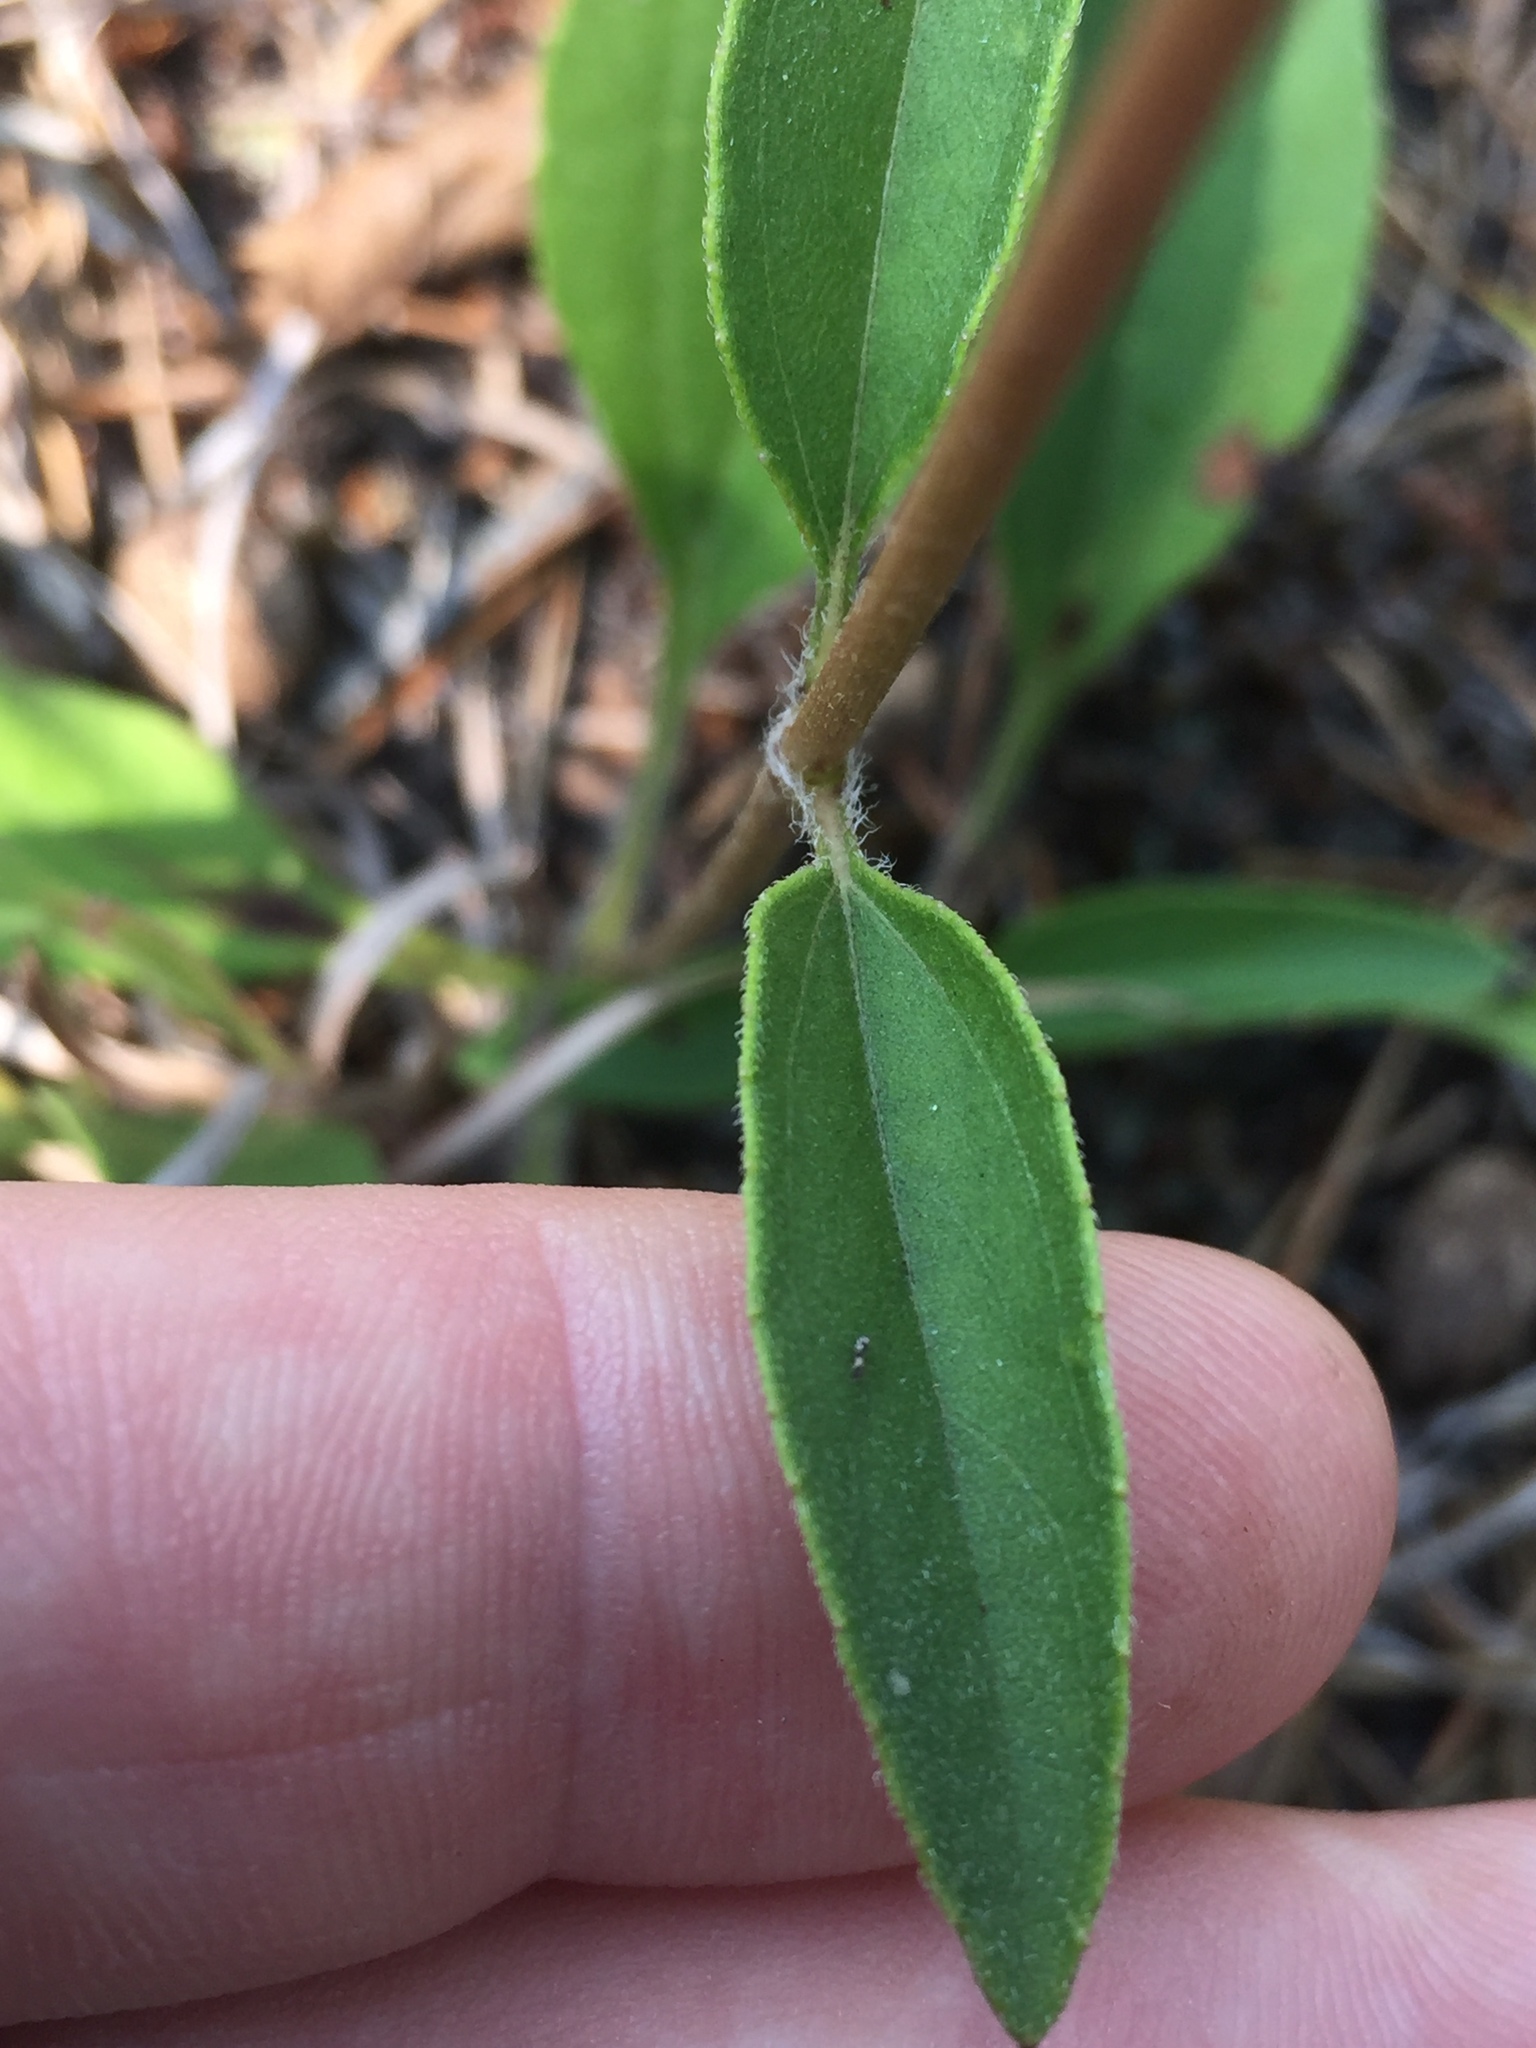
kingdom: Plantae
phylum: Tracheophyta
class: Magnoliopsida
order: Asterales
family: Asteraceae
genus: Helianthus
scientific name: Helianthus occidentalis
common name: Western sunflower
